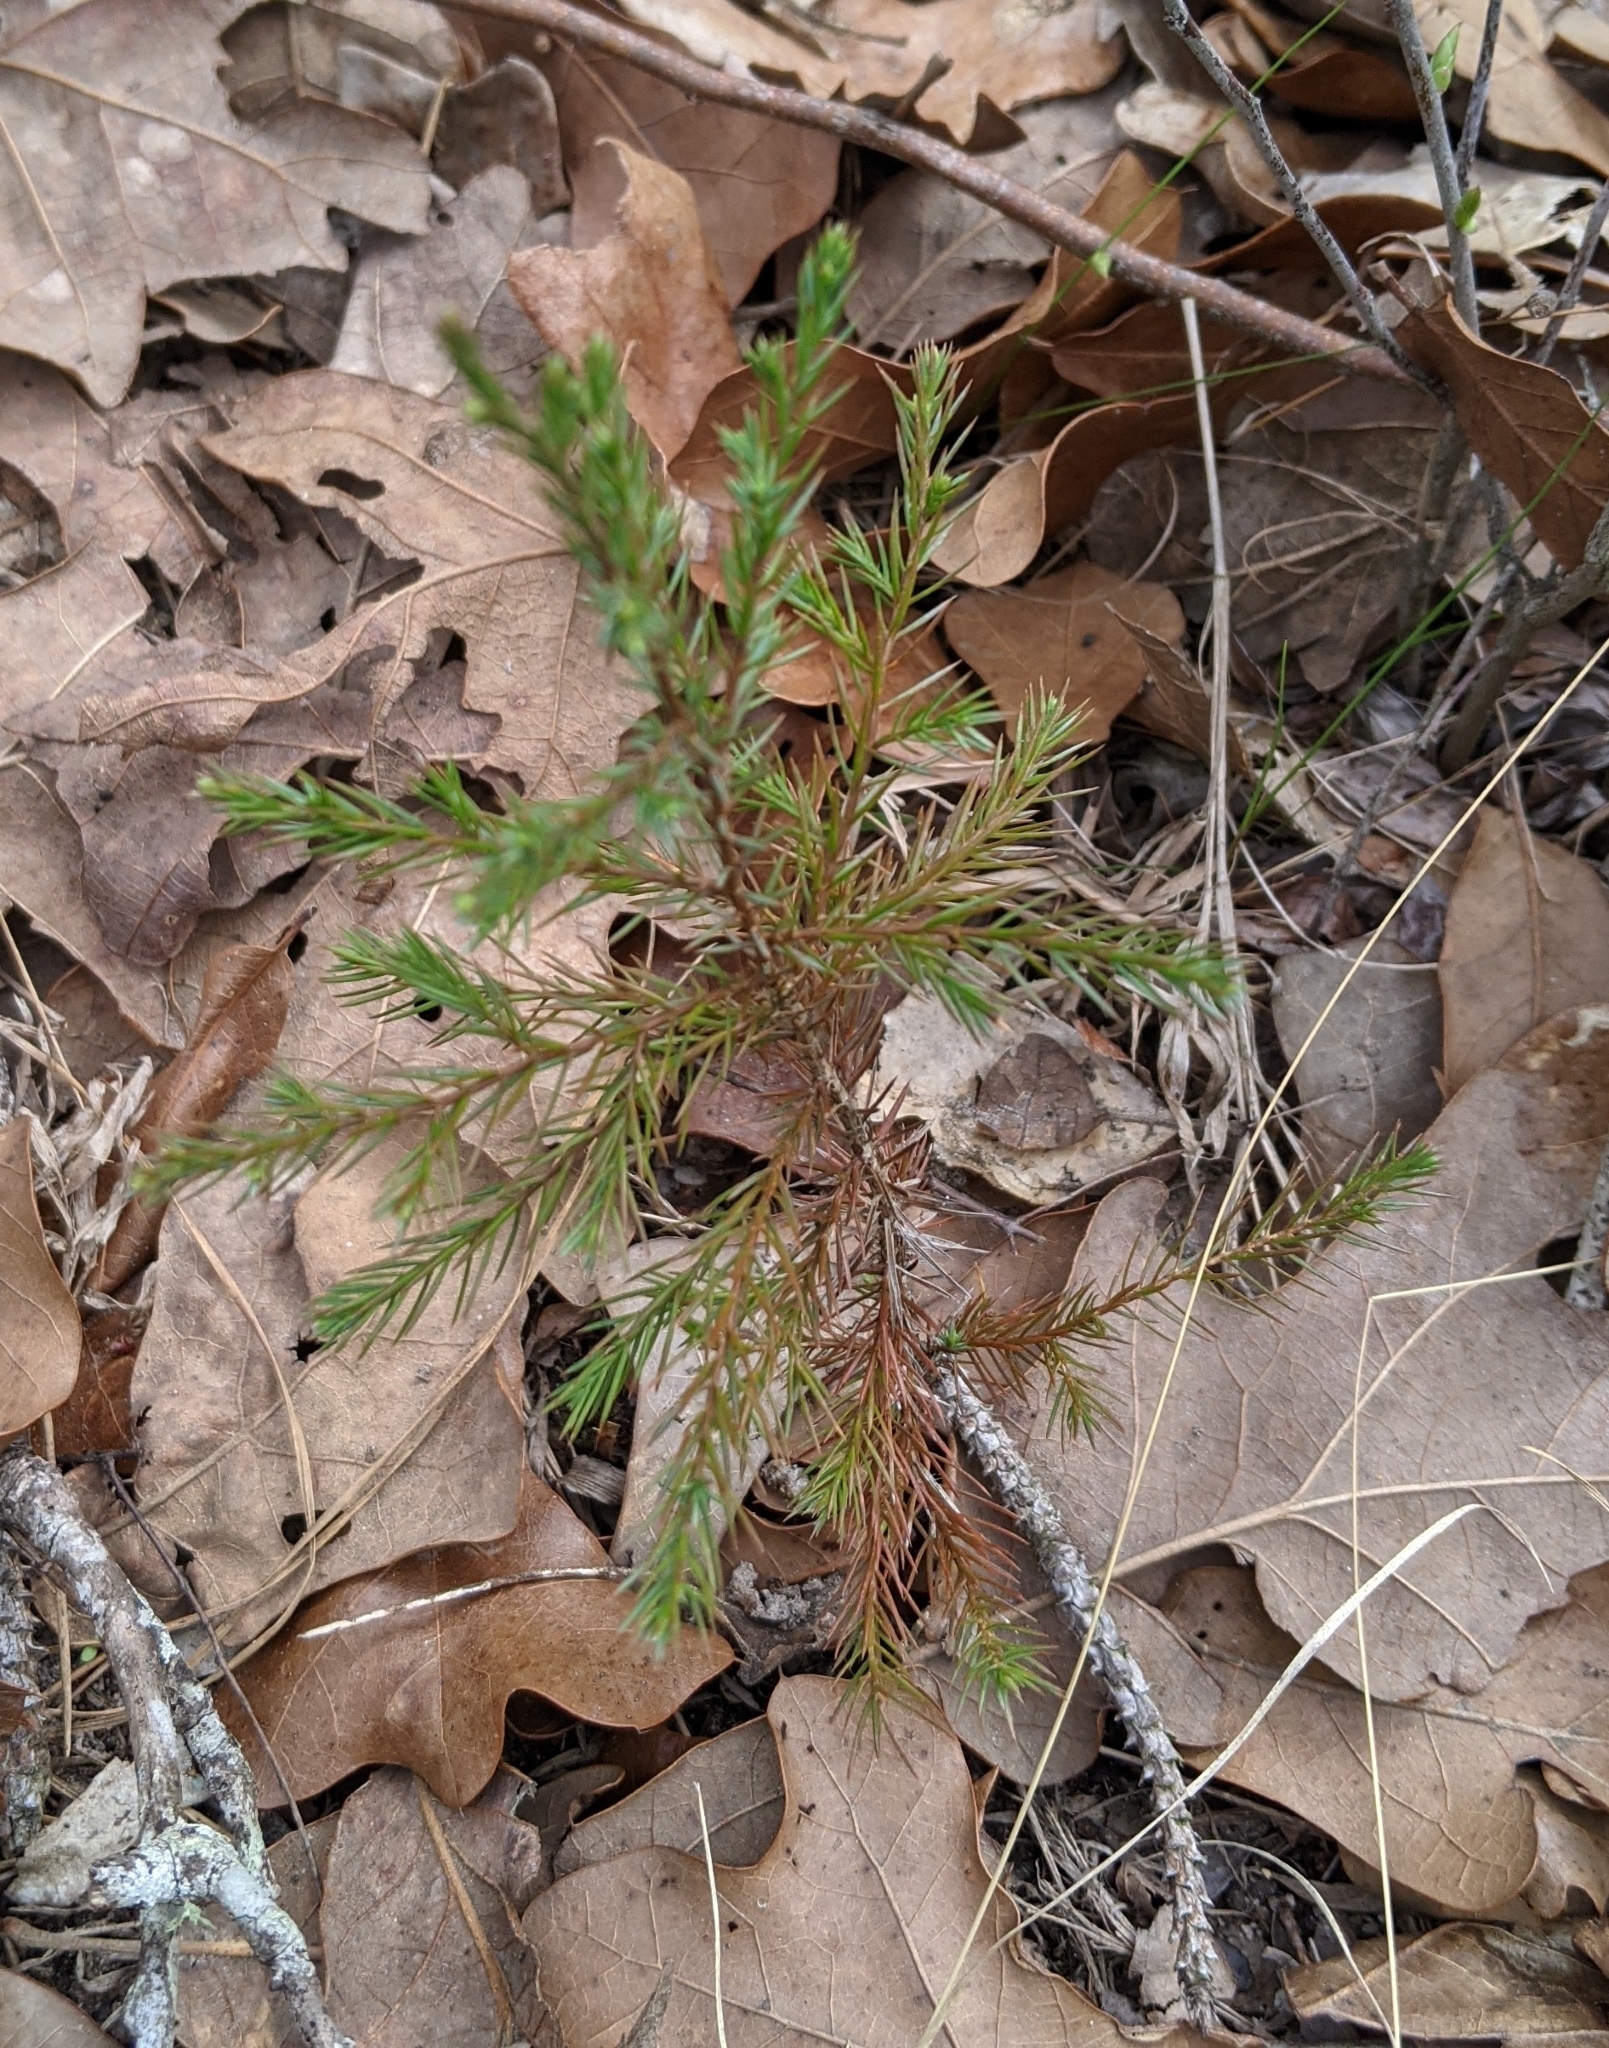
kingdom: Plantae
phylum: Tracheophyta
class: Pinopsida
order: Pinales
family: Cupressaceae
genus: Juniperus
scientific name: Juniperus virginiana
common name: Red juniper
